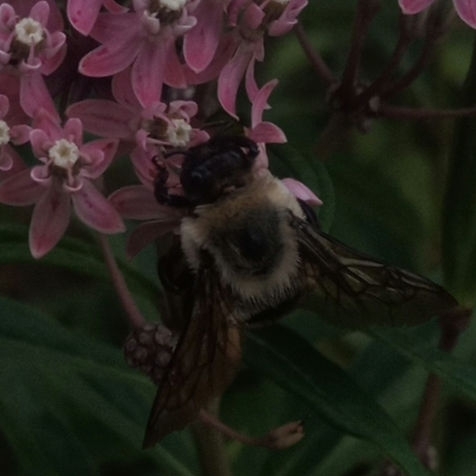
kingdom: Animalia
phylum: Arthropoda
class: Insecta
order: Hymenoptera
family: Apidae
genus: Bombus
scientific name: Bombus griseocollis
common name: Brown-belted bumble bee
